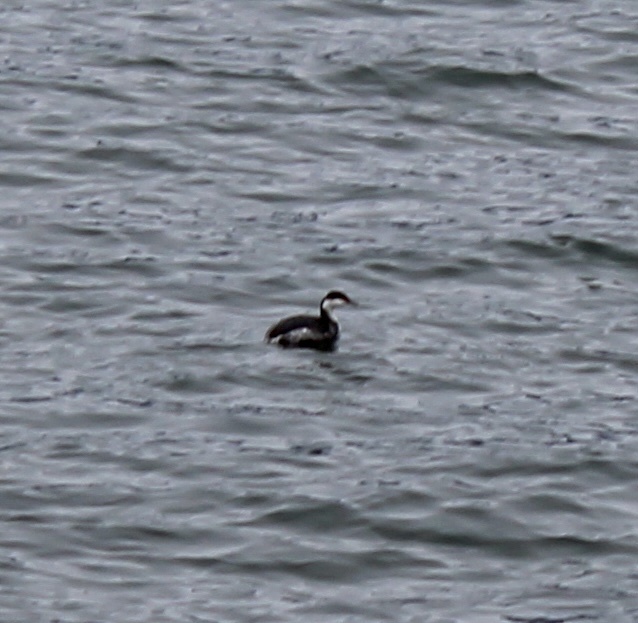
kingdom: Animalia
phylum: Chordata
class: Aves
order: Podicipediformes
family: Podicipedidae
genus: Podiceps
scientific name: Podiceps auritus
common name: Horned grebe
